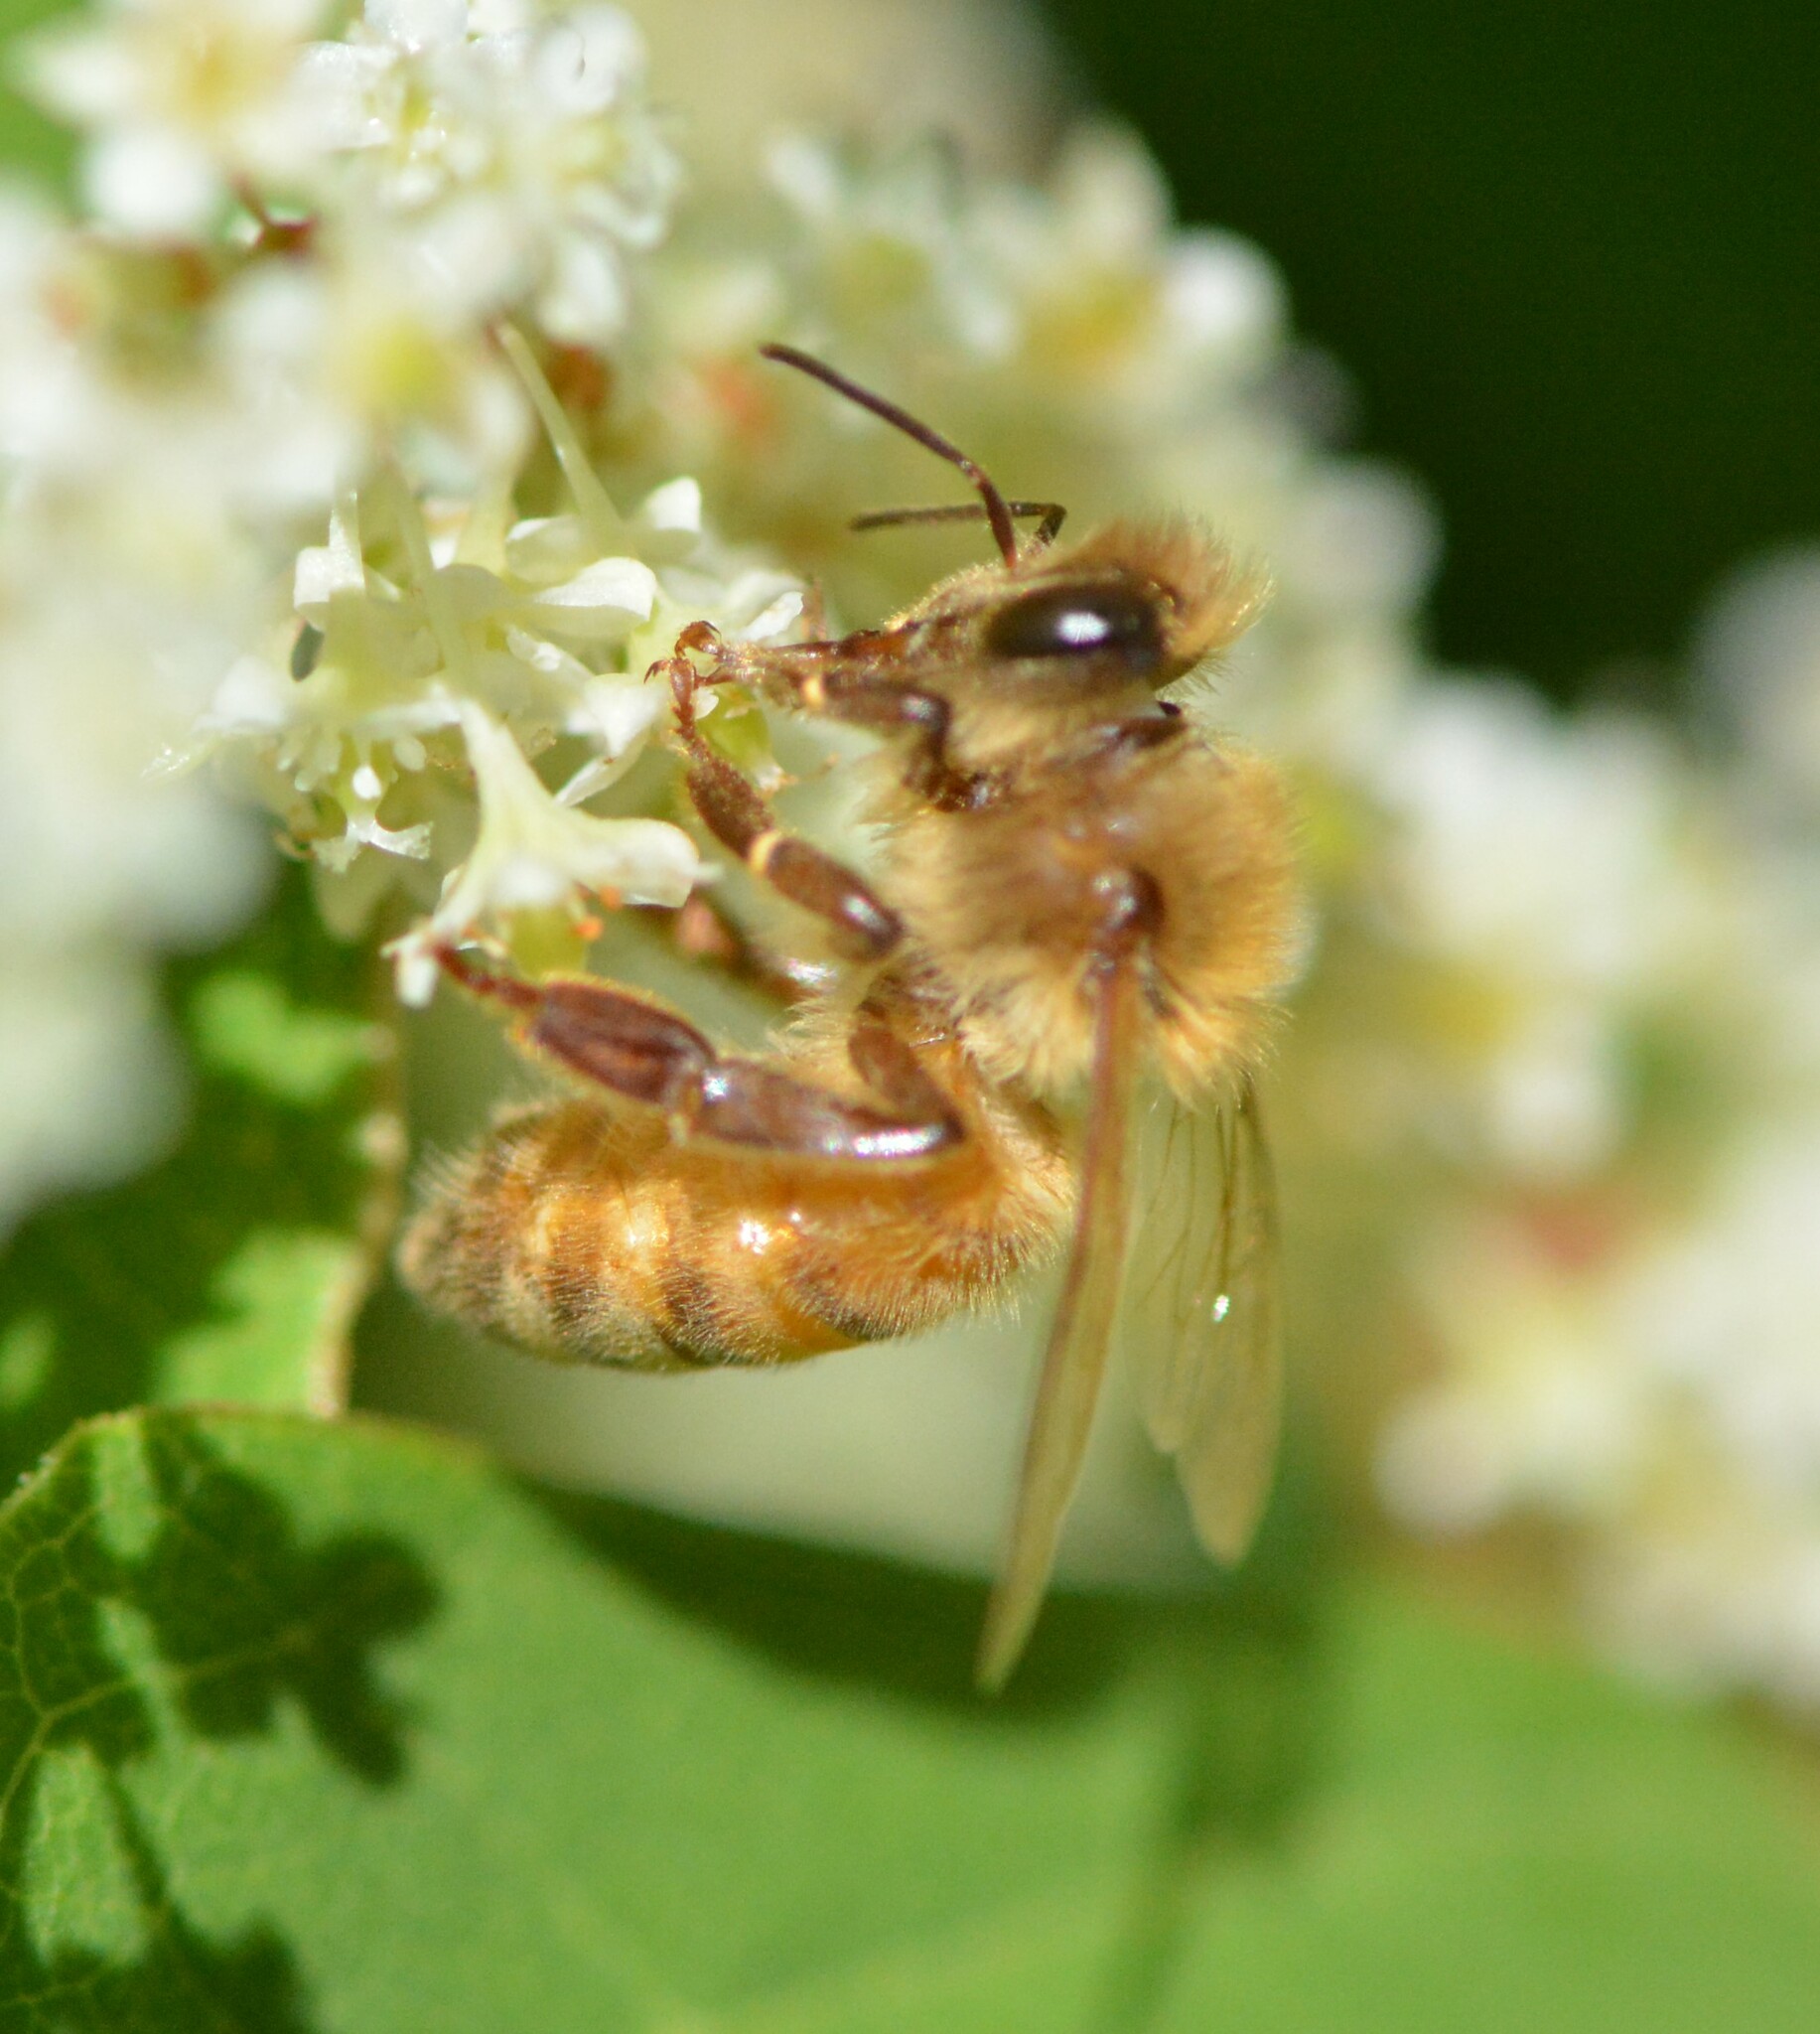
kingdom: Animalia
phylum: Arthropoda
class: Insecta
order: Hymenoptera
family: Apidae
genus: Apis
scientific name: Apis mellifera
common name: Honey bee
